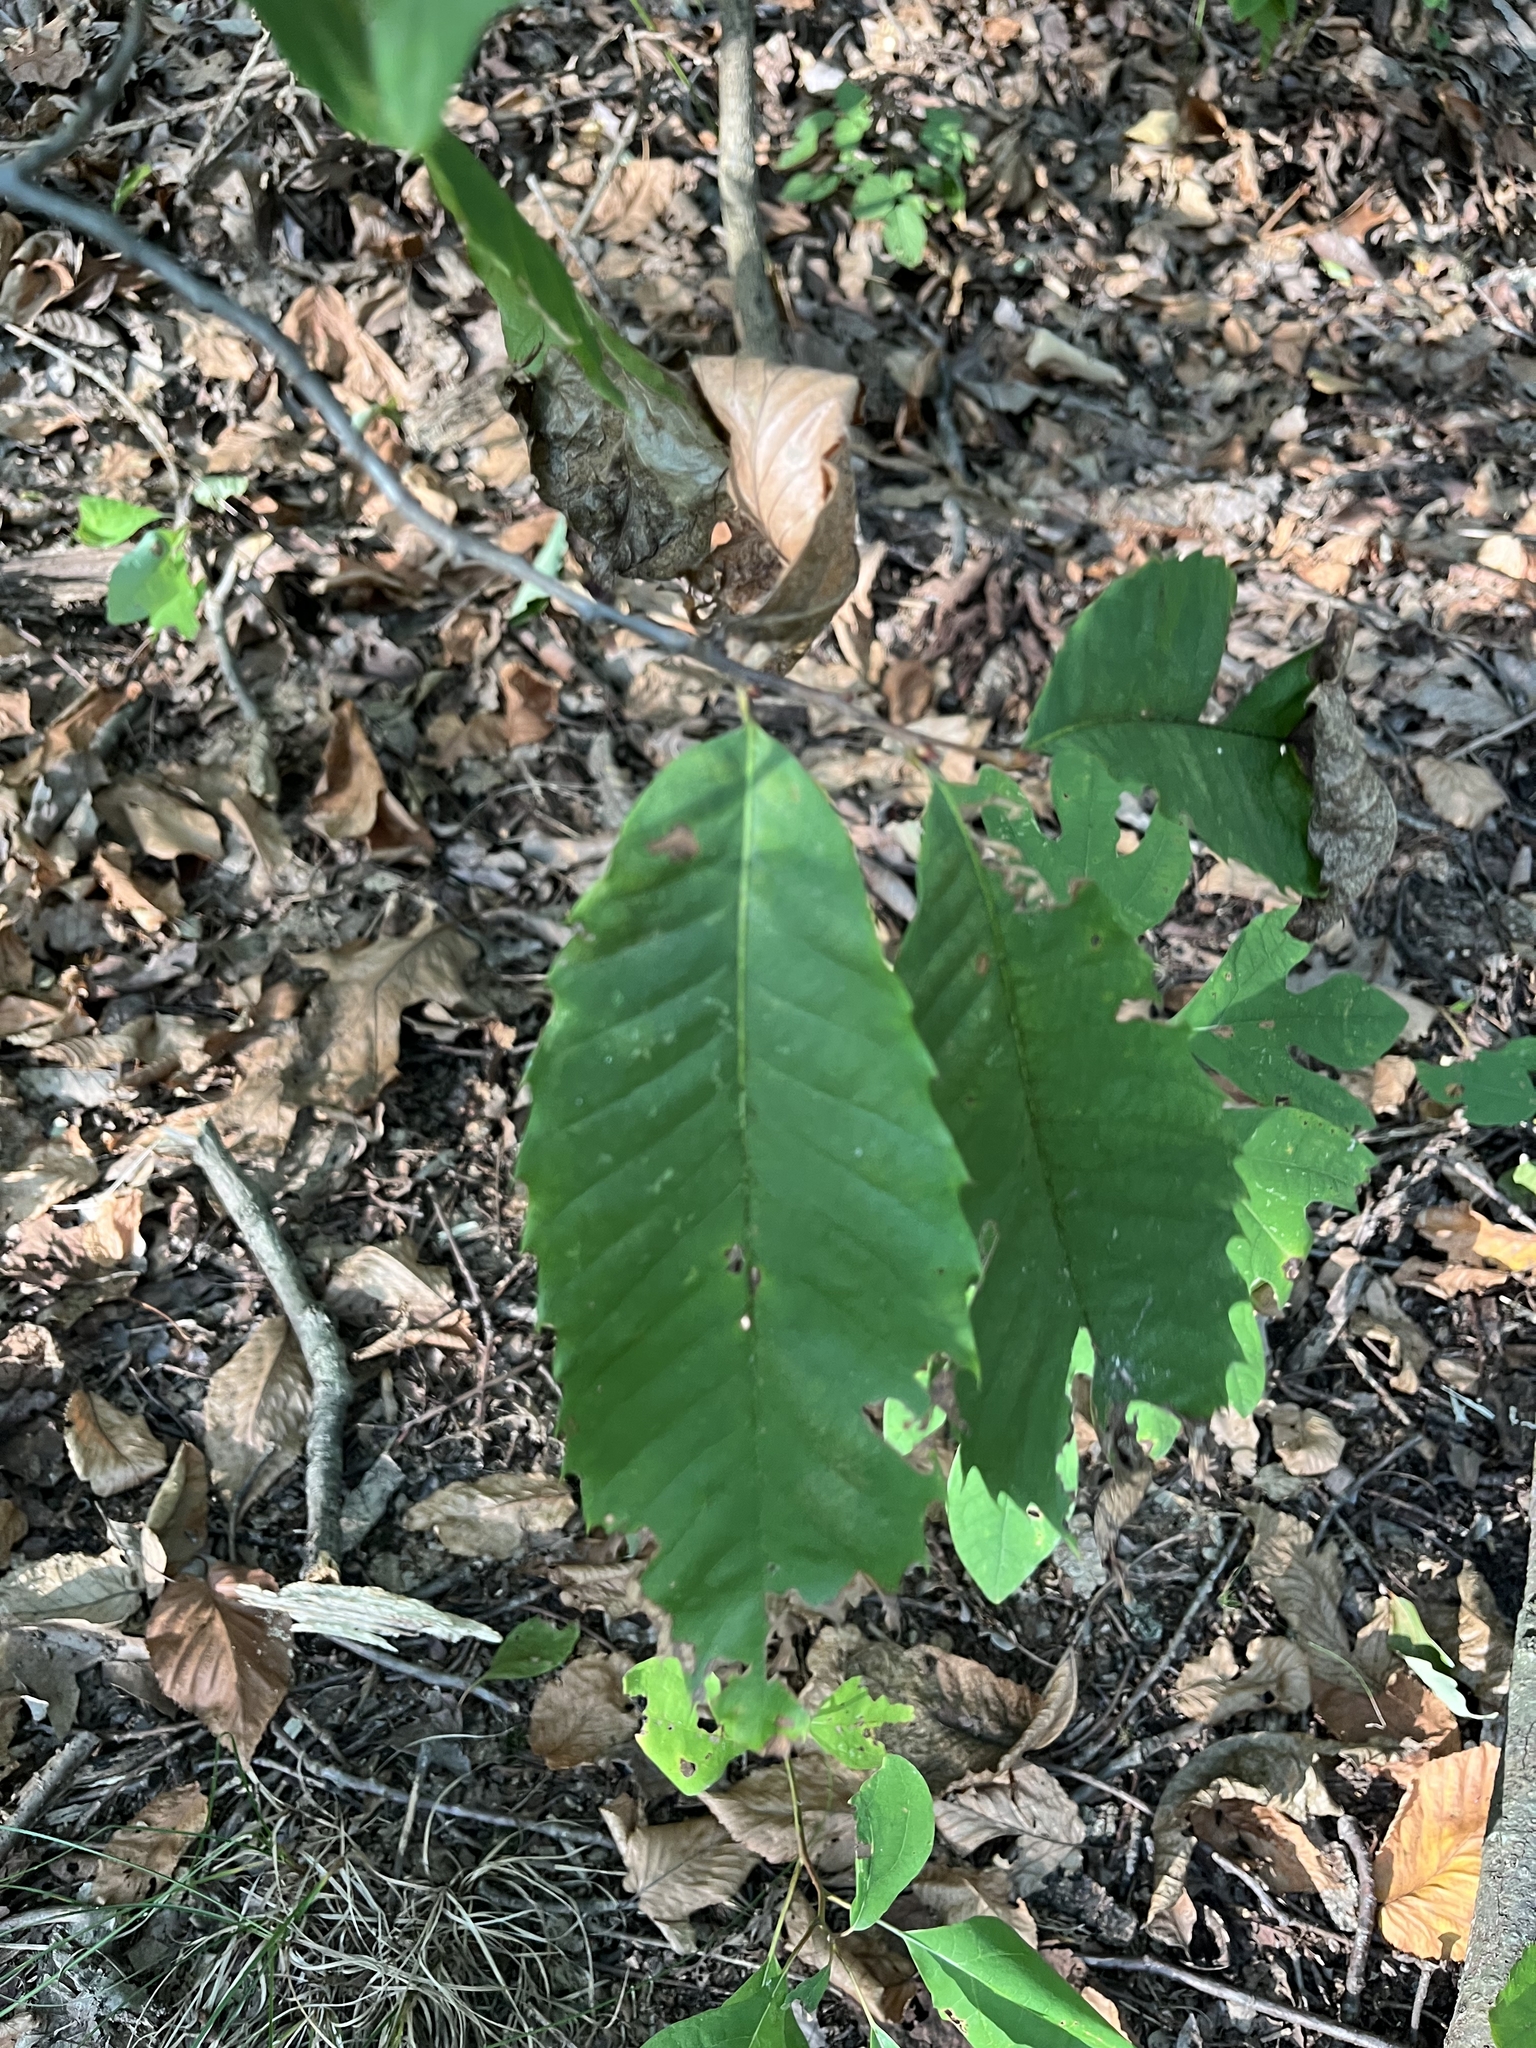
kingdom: Plantae
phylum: Tracheophyta
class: Magnoliopsida
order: Fagales
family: Fagaceae
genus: Castanea
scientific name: Castanea dentata
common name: American chestnut
